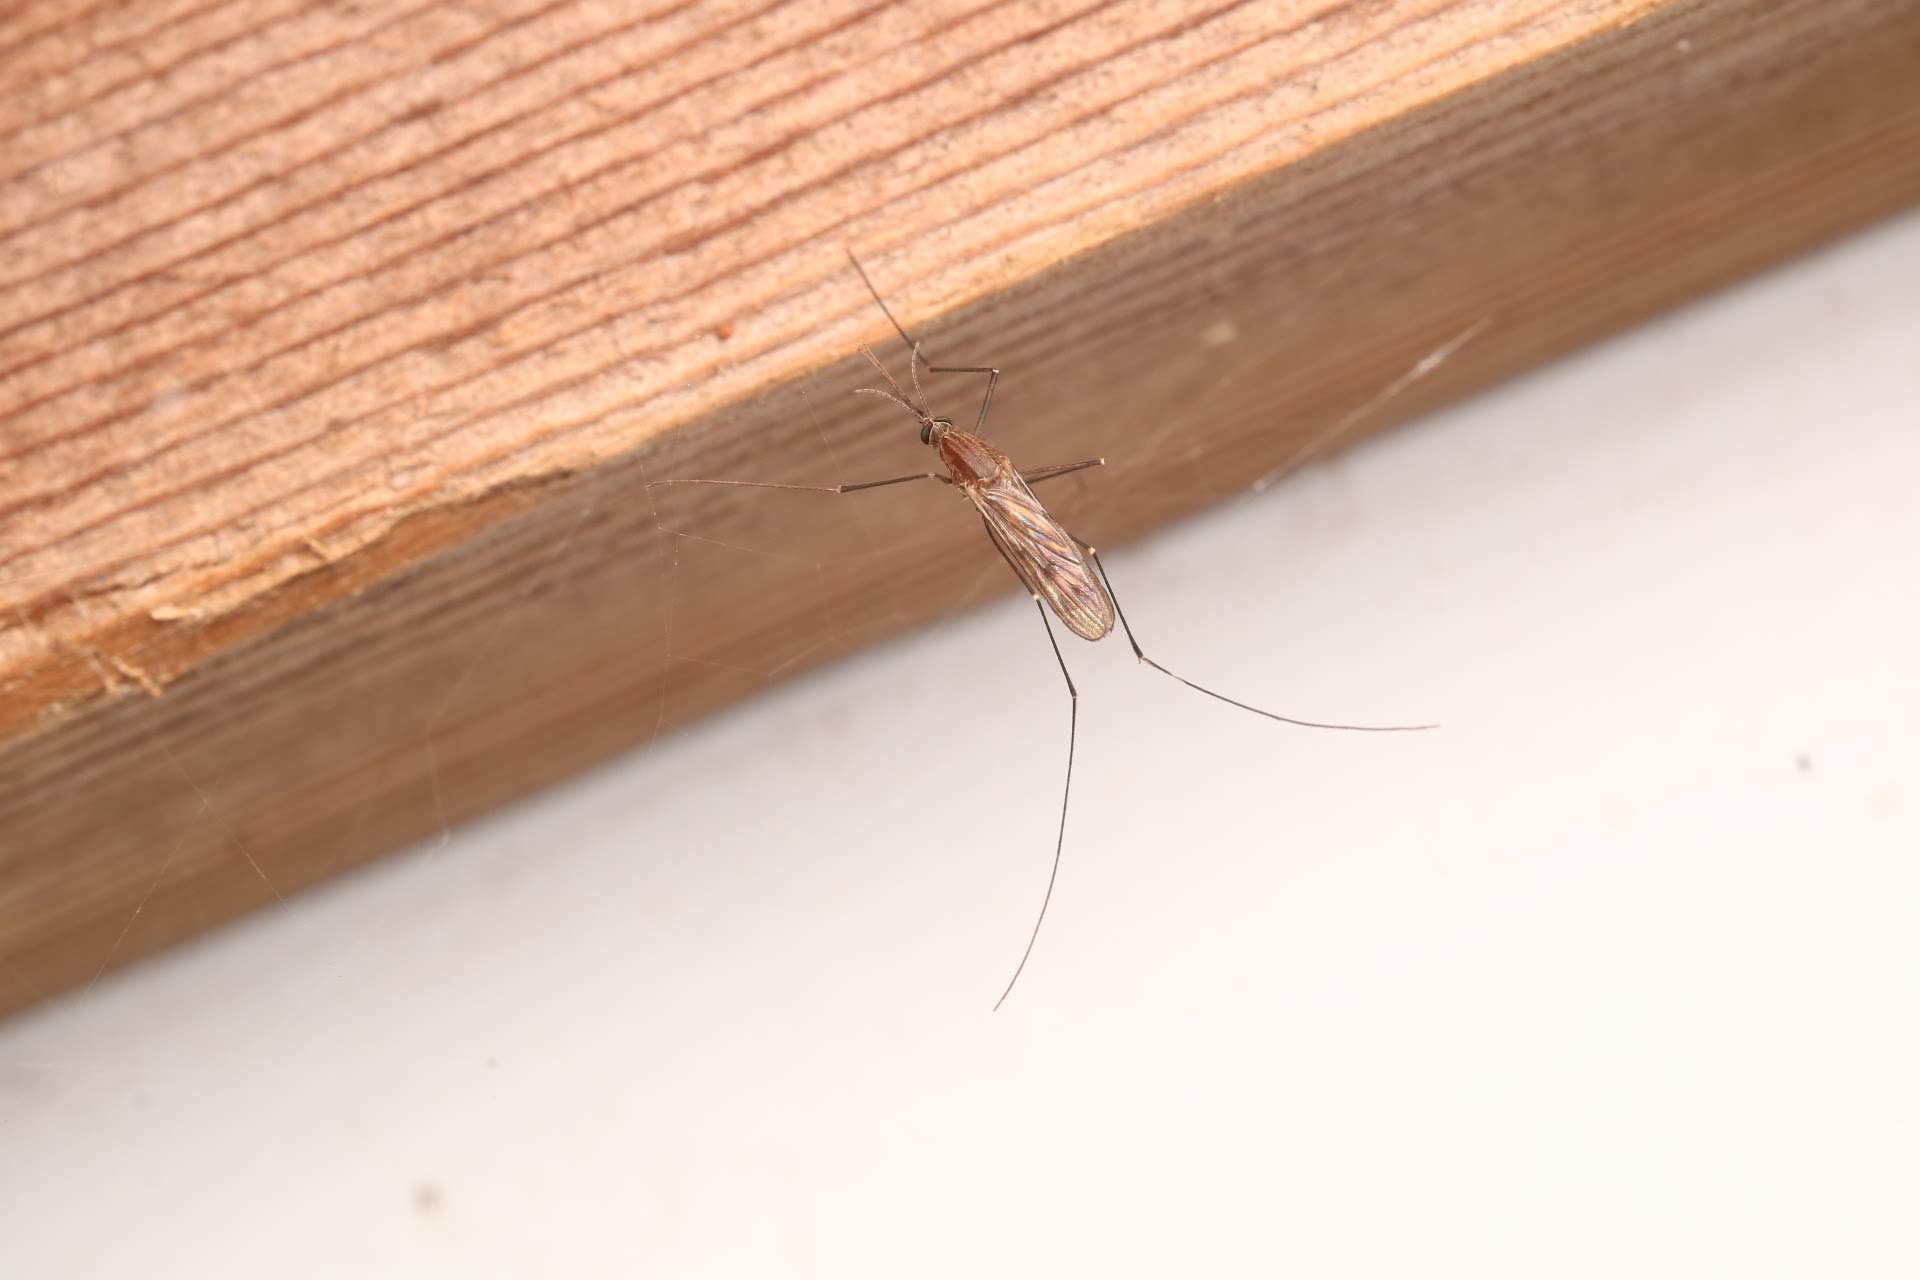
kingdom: Animalia
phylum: Arthropoda
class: Insecta
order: Diptera
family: Culicidae
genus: Anopheles
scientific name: Anopheles
